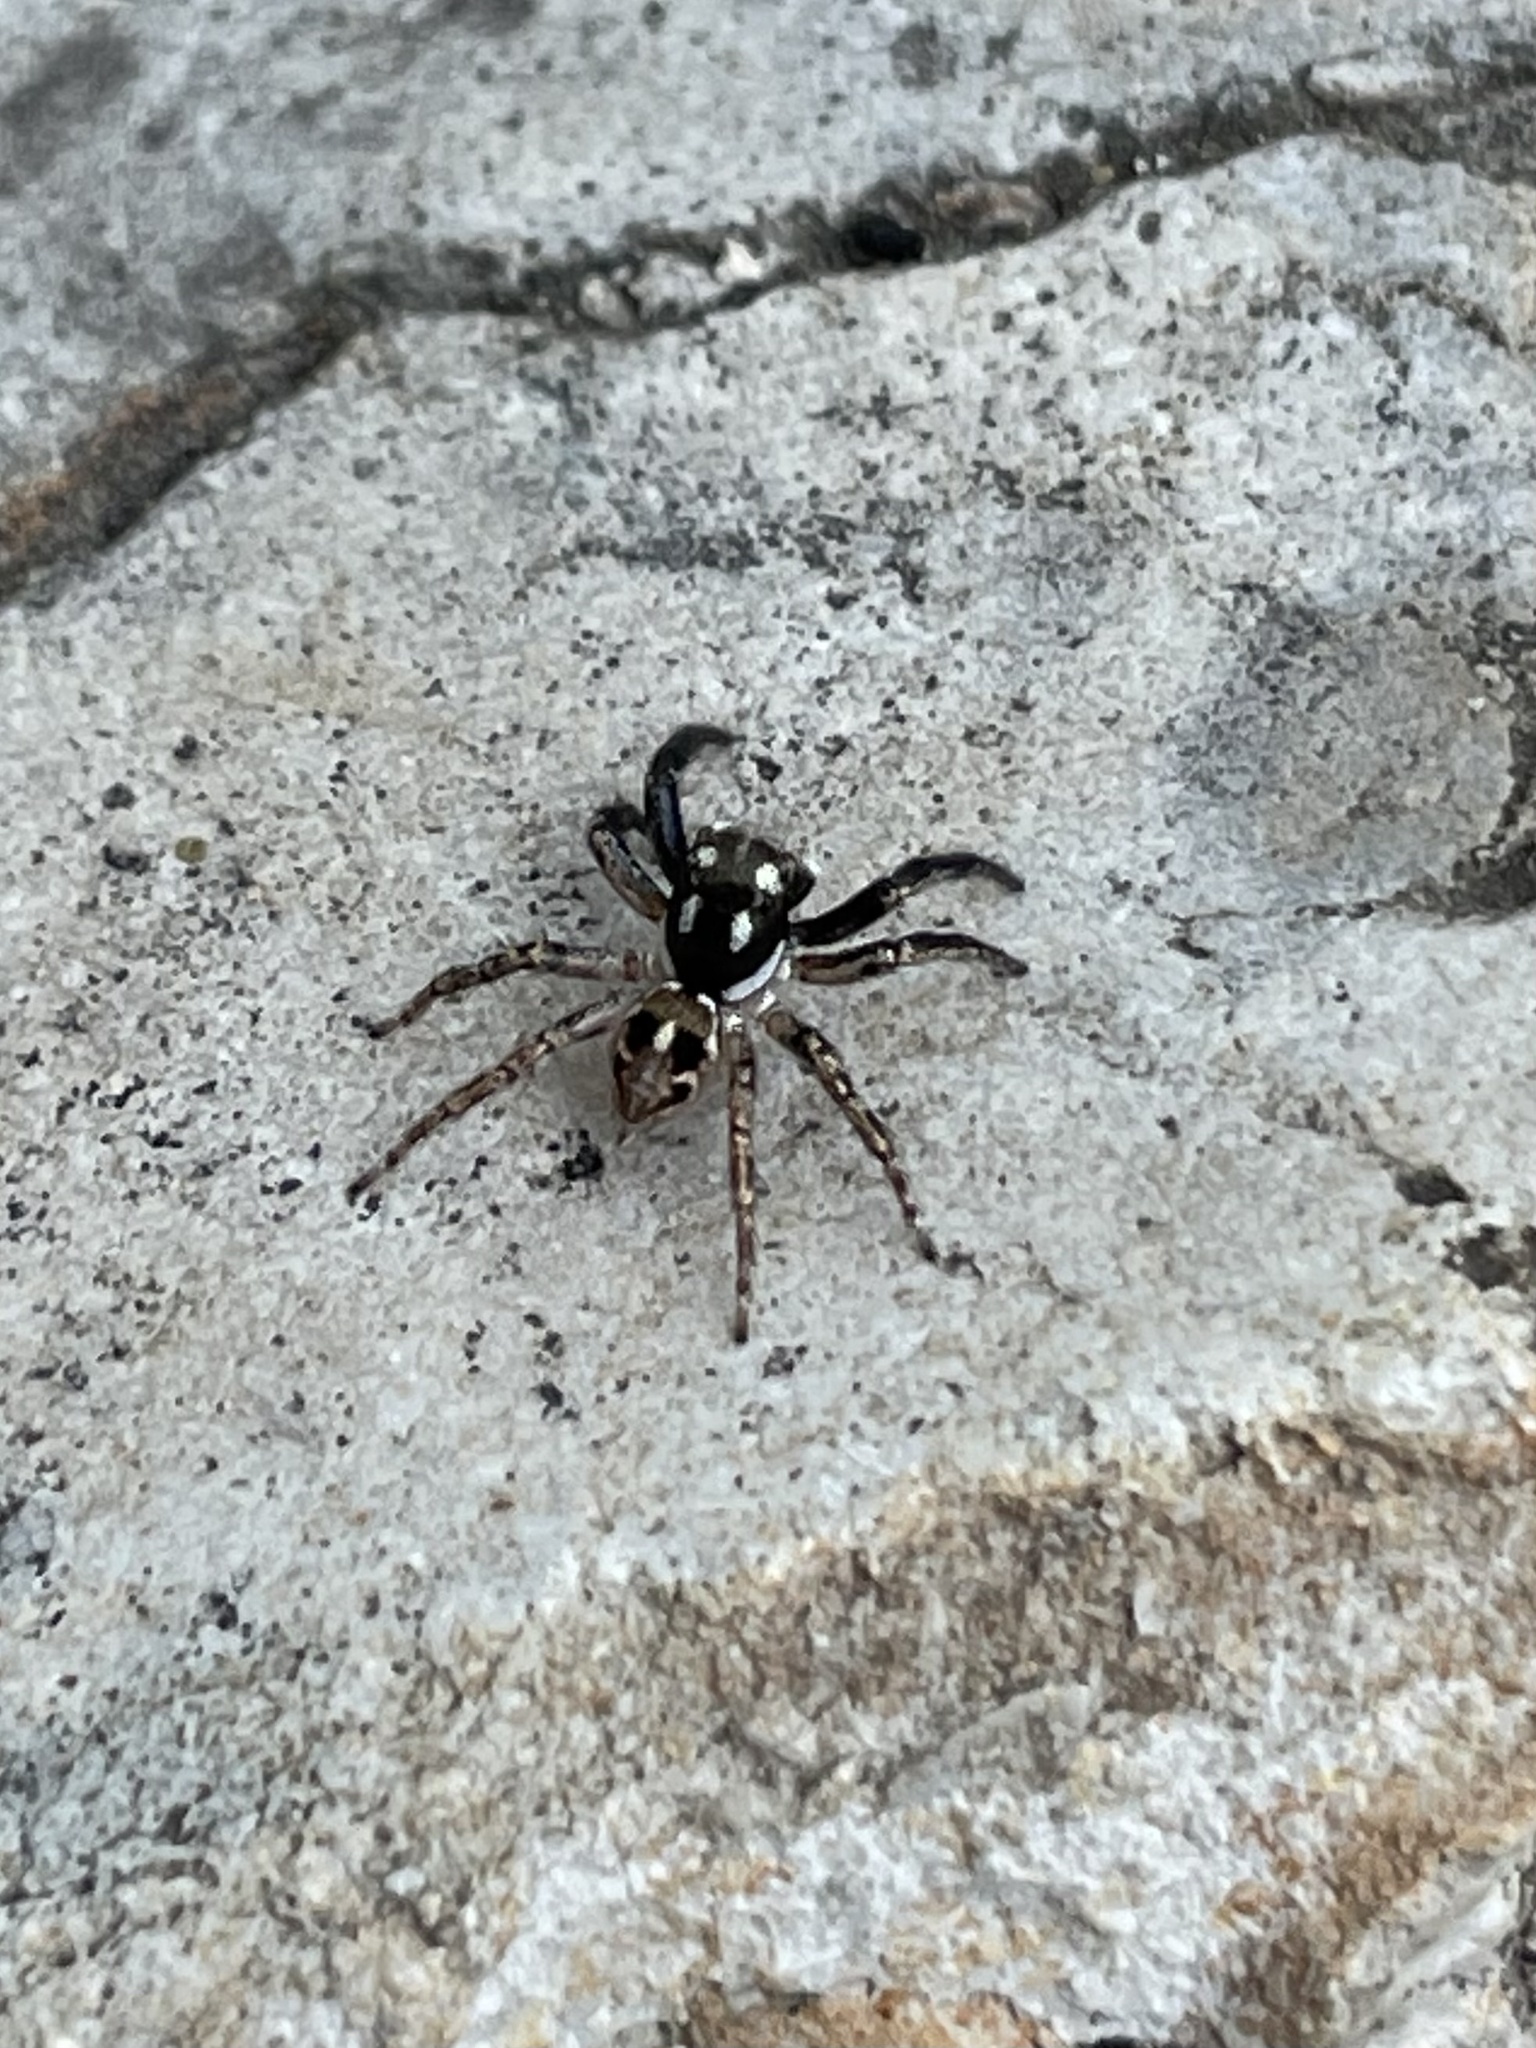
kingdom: Animalia
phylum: Arthropoda
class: Arachnida
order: Araneae
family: Salticidae
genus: Anasaitis
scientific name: Anasaitis canosa
